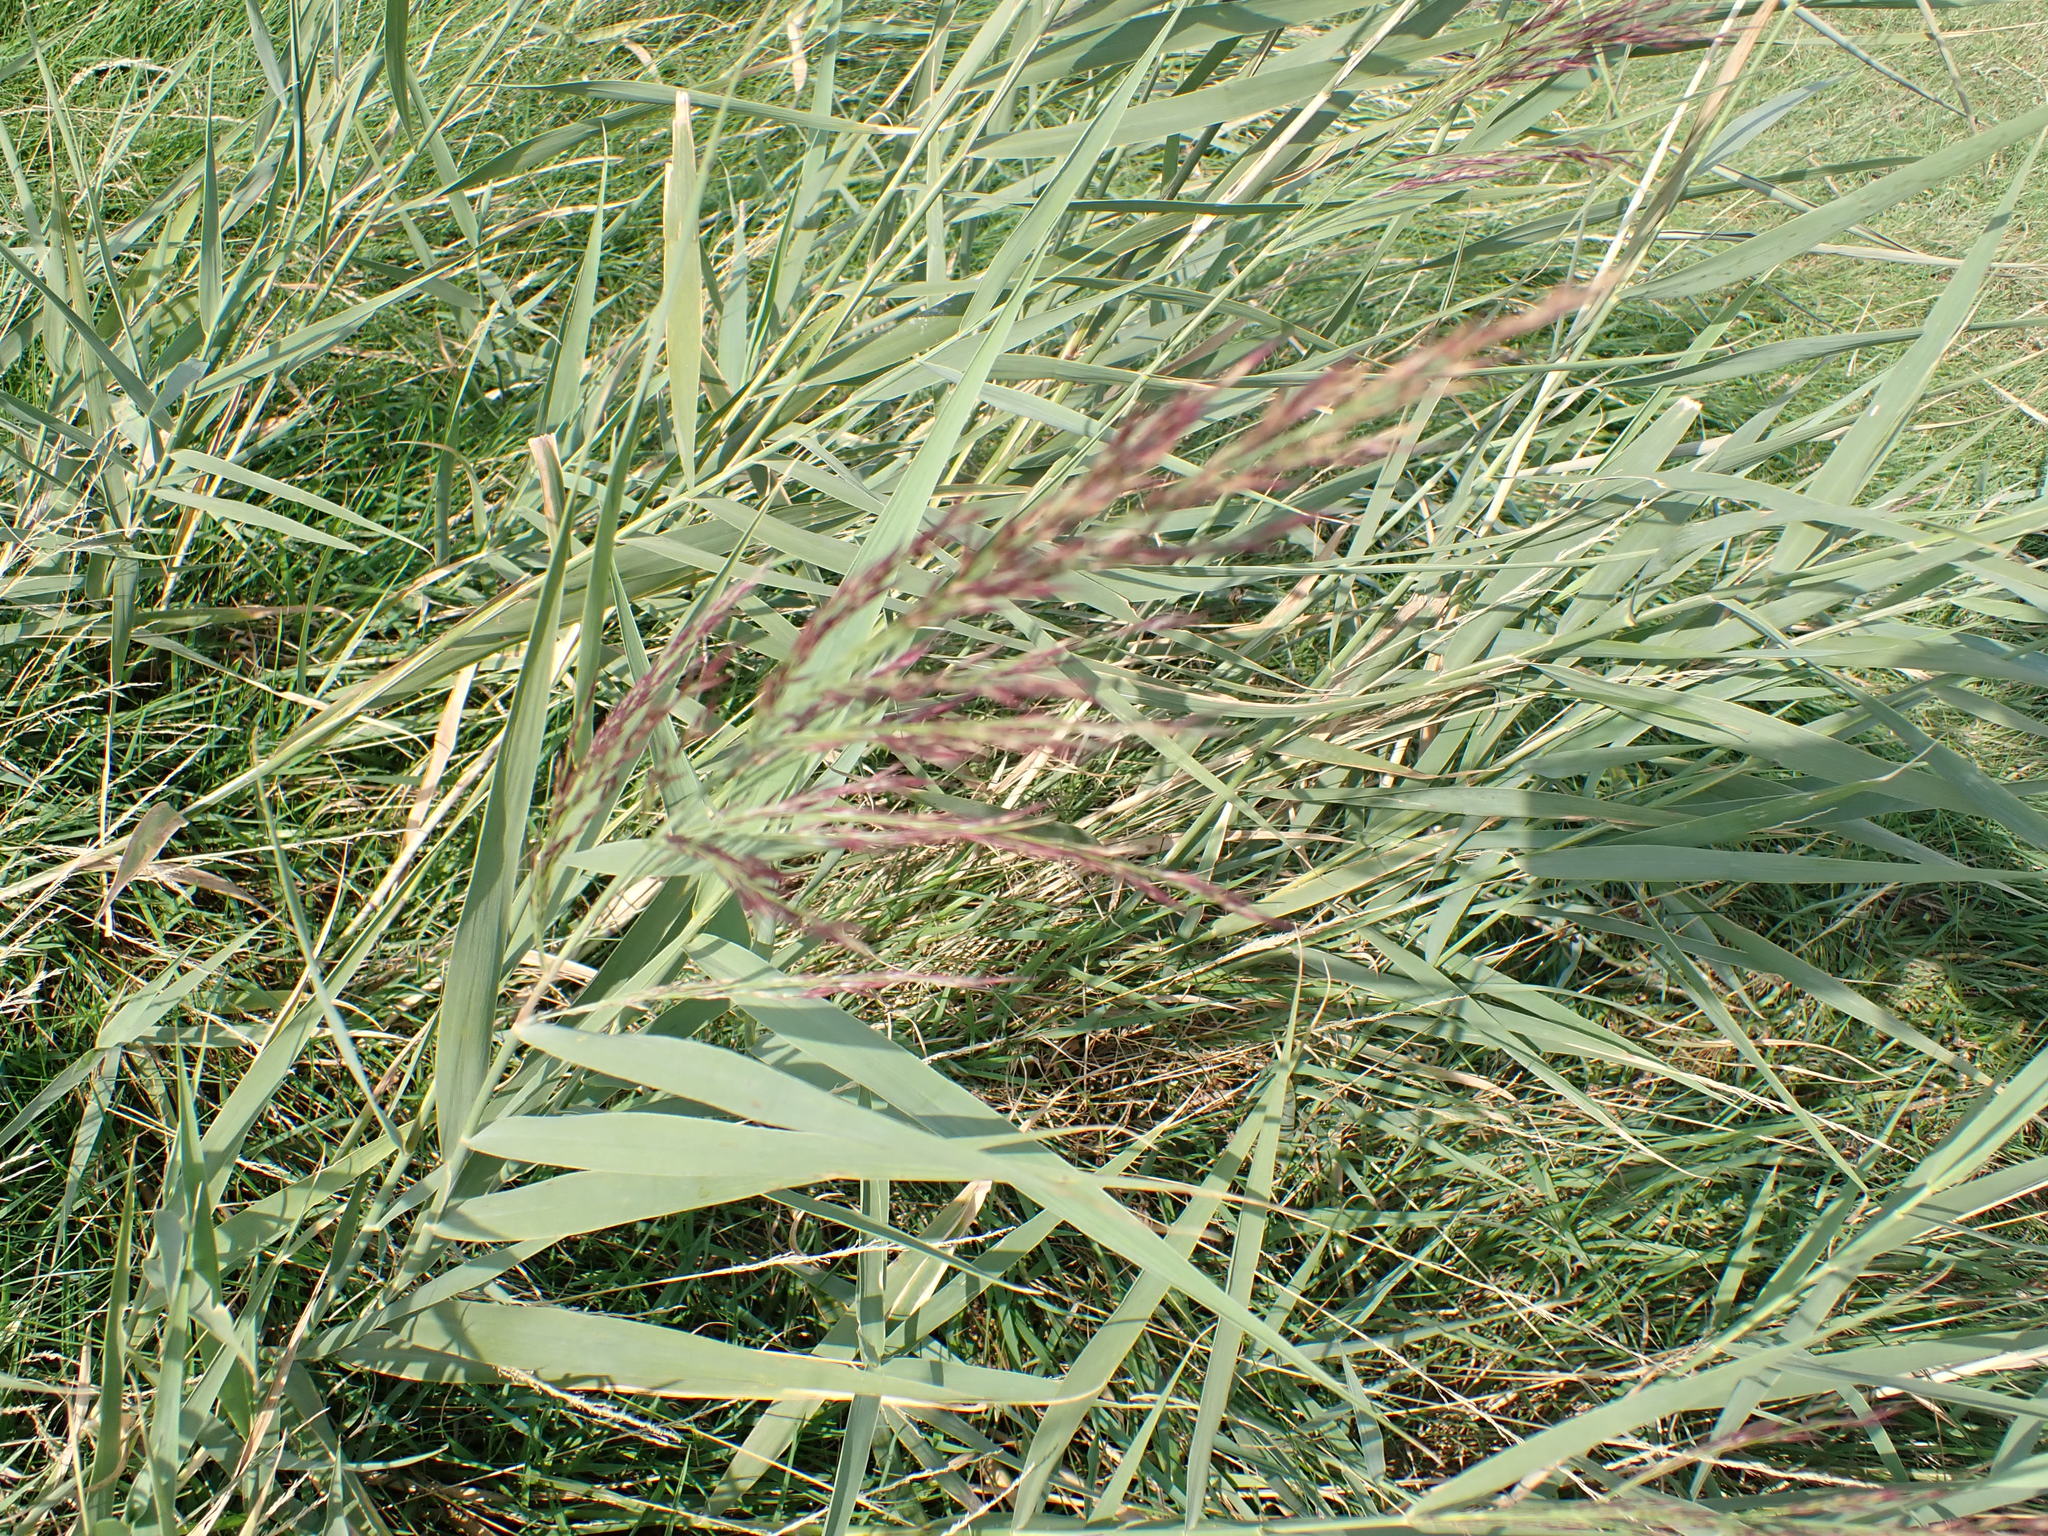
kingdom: Plantae
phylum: Tracheophyta
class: Liliopsida
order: Poales
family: Poaceae
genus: Phragmites
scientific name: Phragmites australis
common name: Common reed
